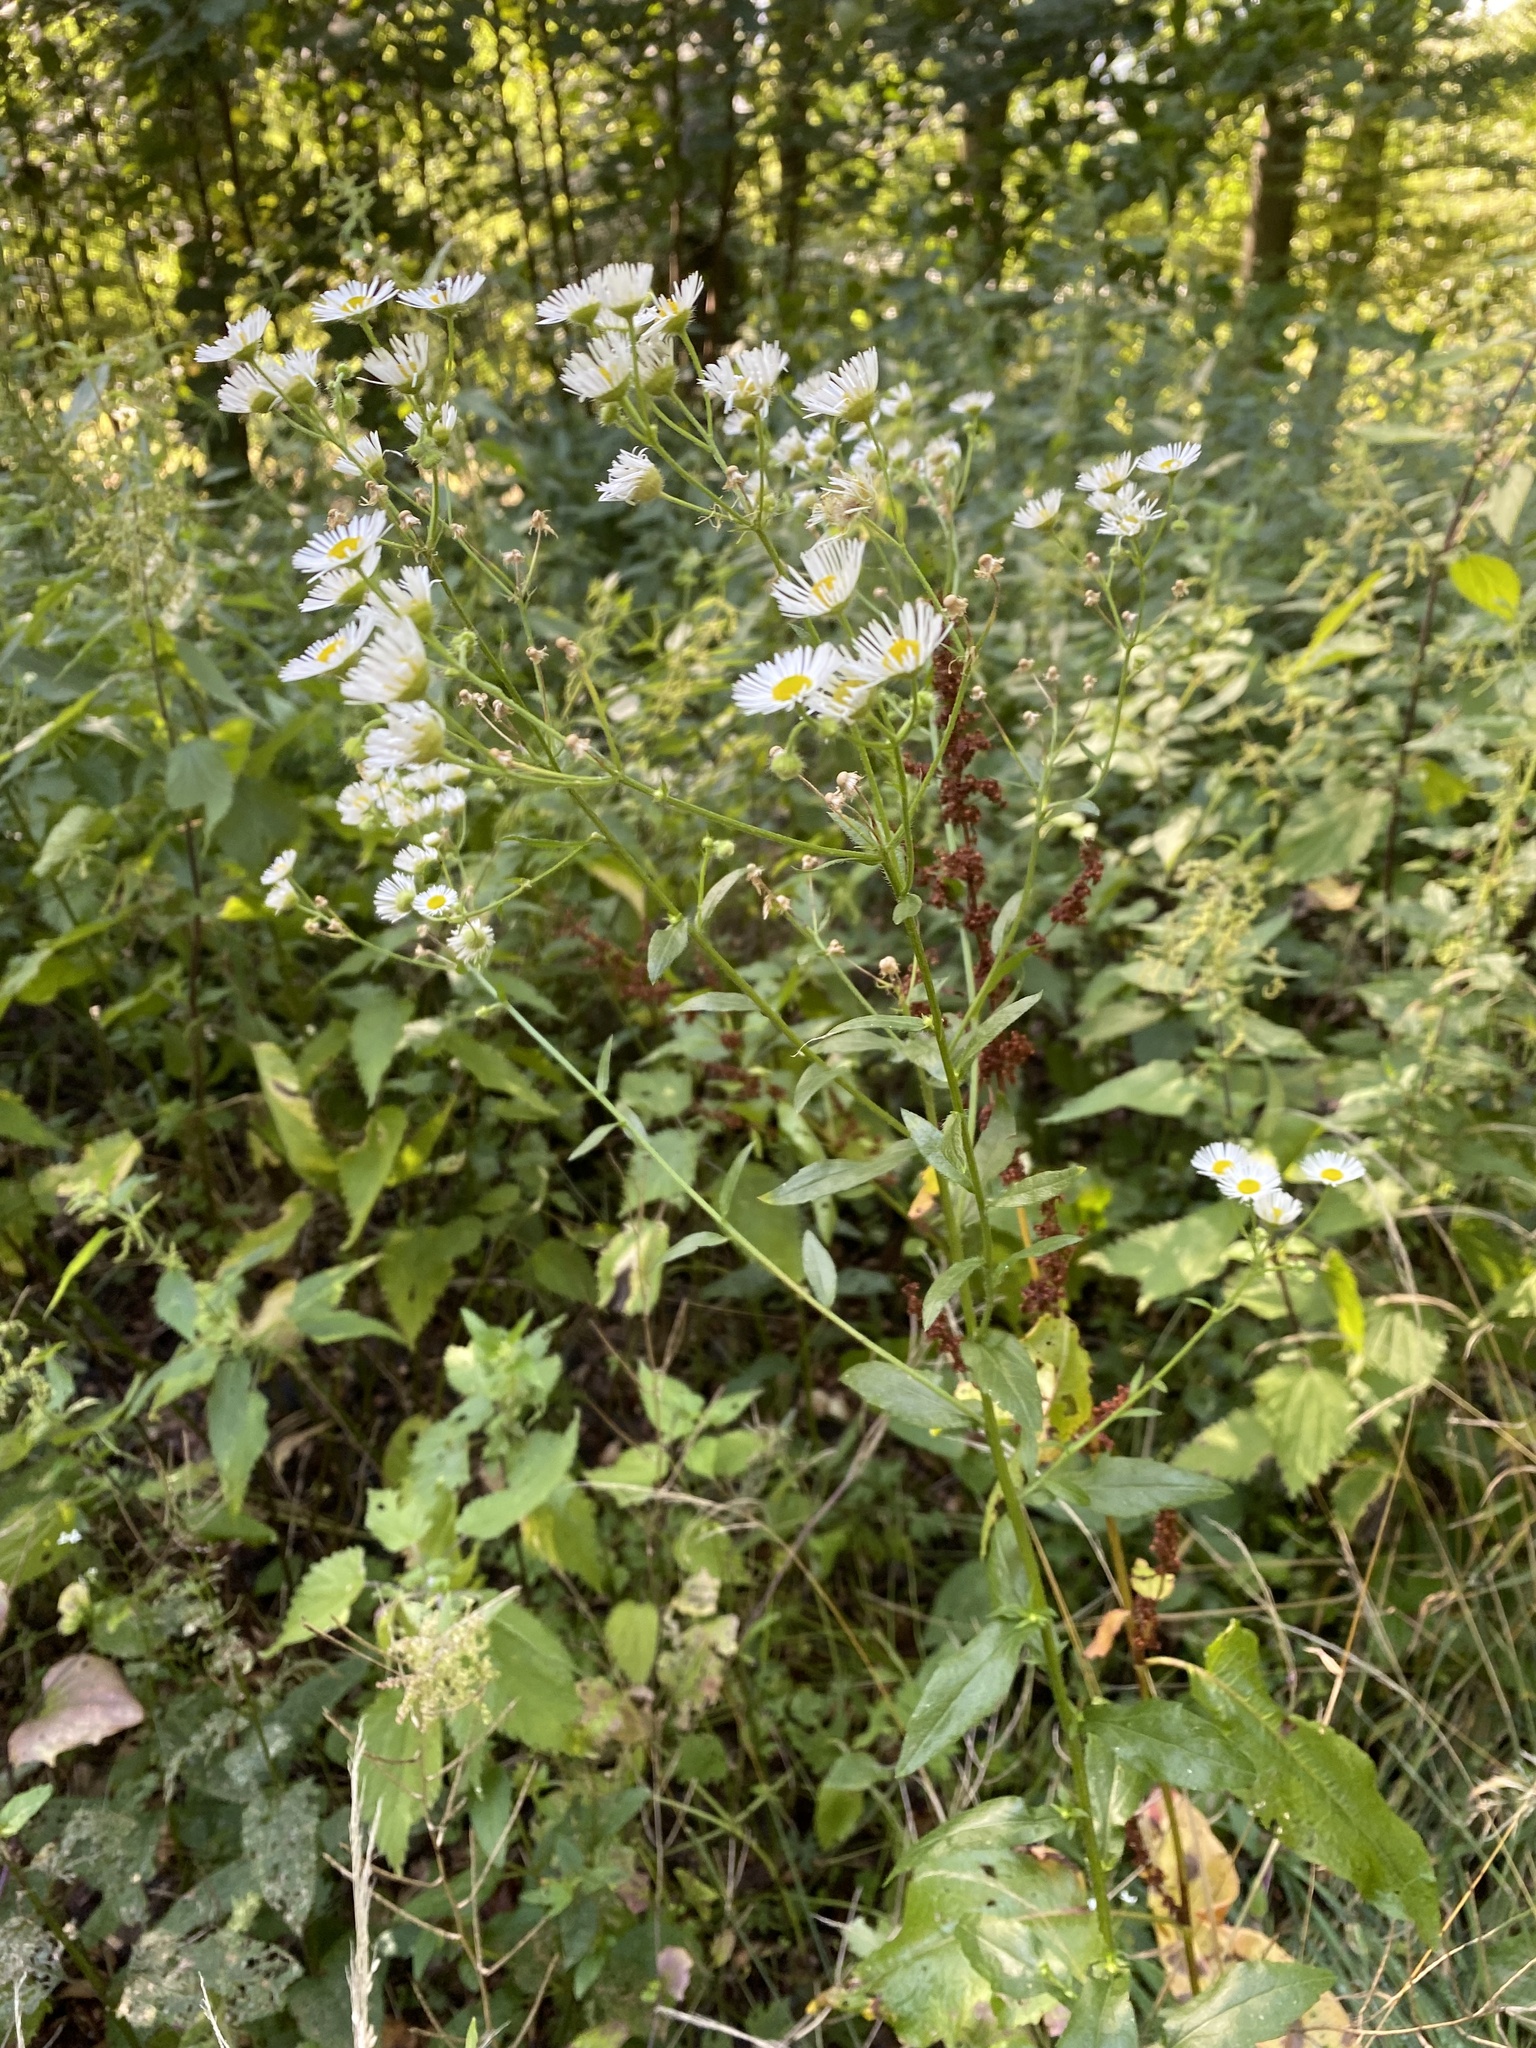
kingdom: Plantae
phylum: Tracheophyta
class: Magnoliopsida
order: Asterales
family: Asteraceae
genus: Erigeron
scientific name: Erigeron annuus
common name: Tall fleabane
